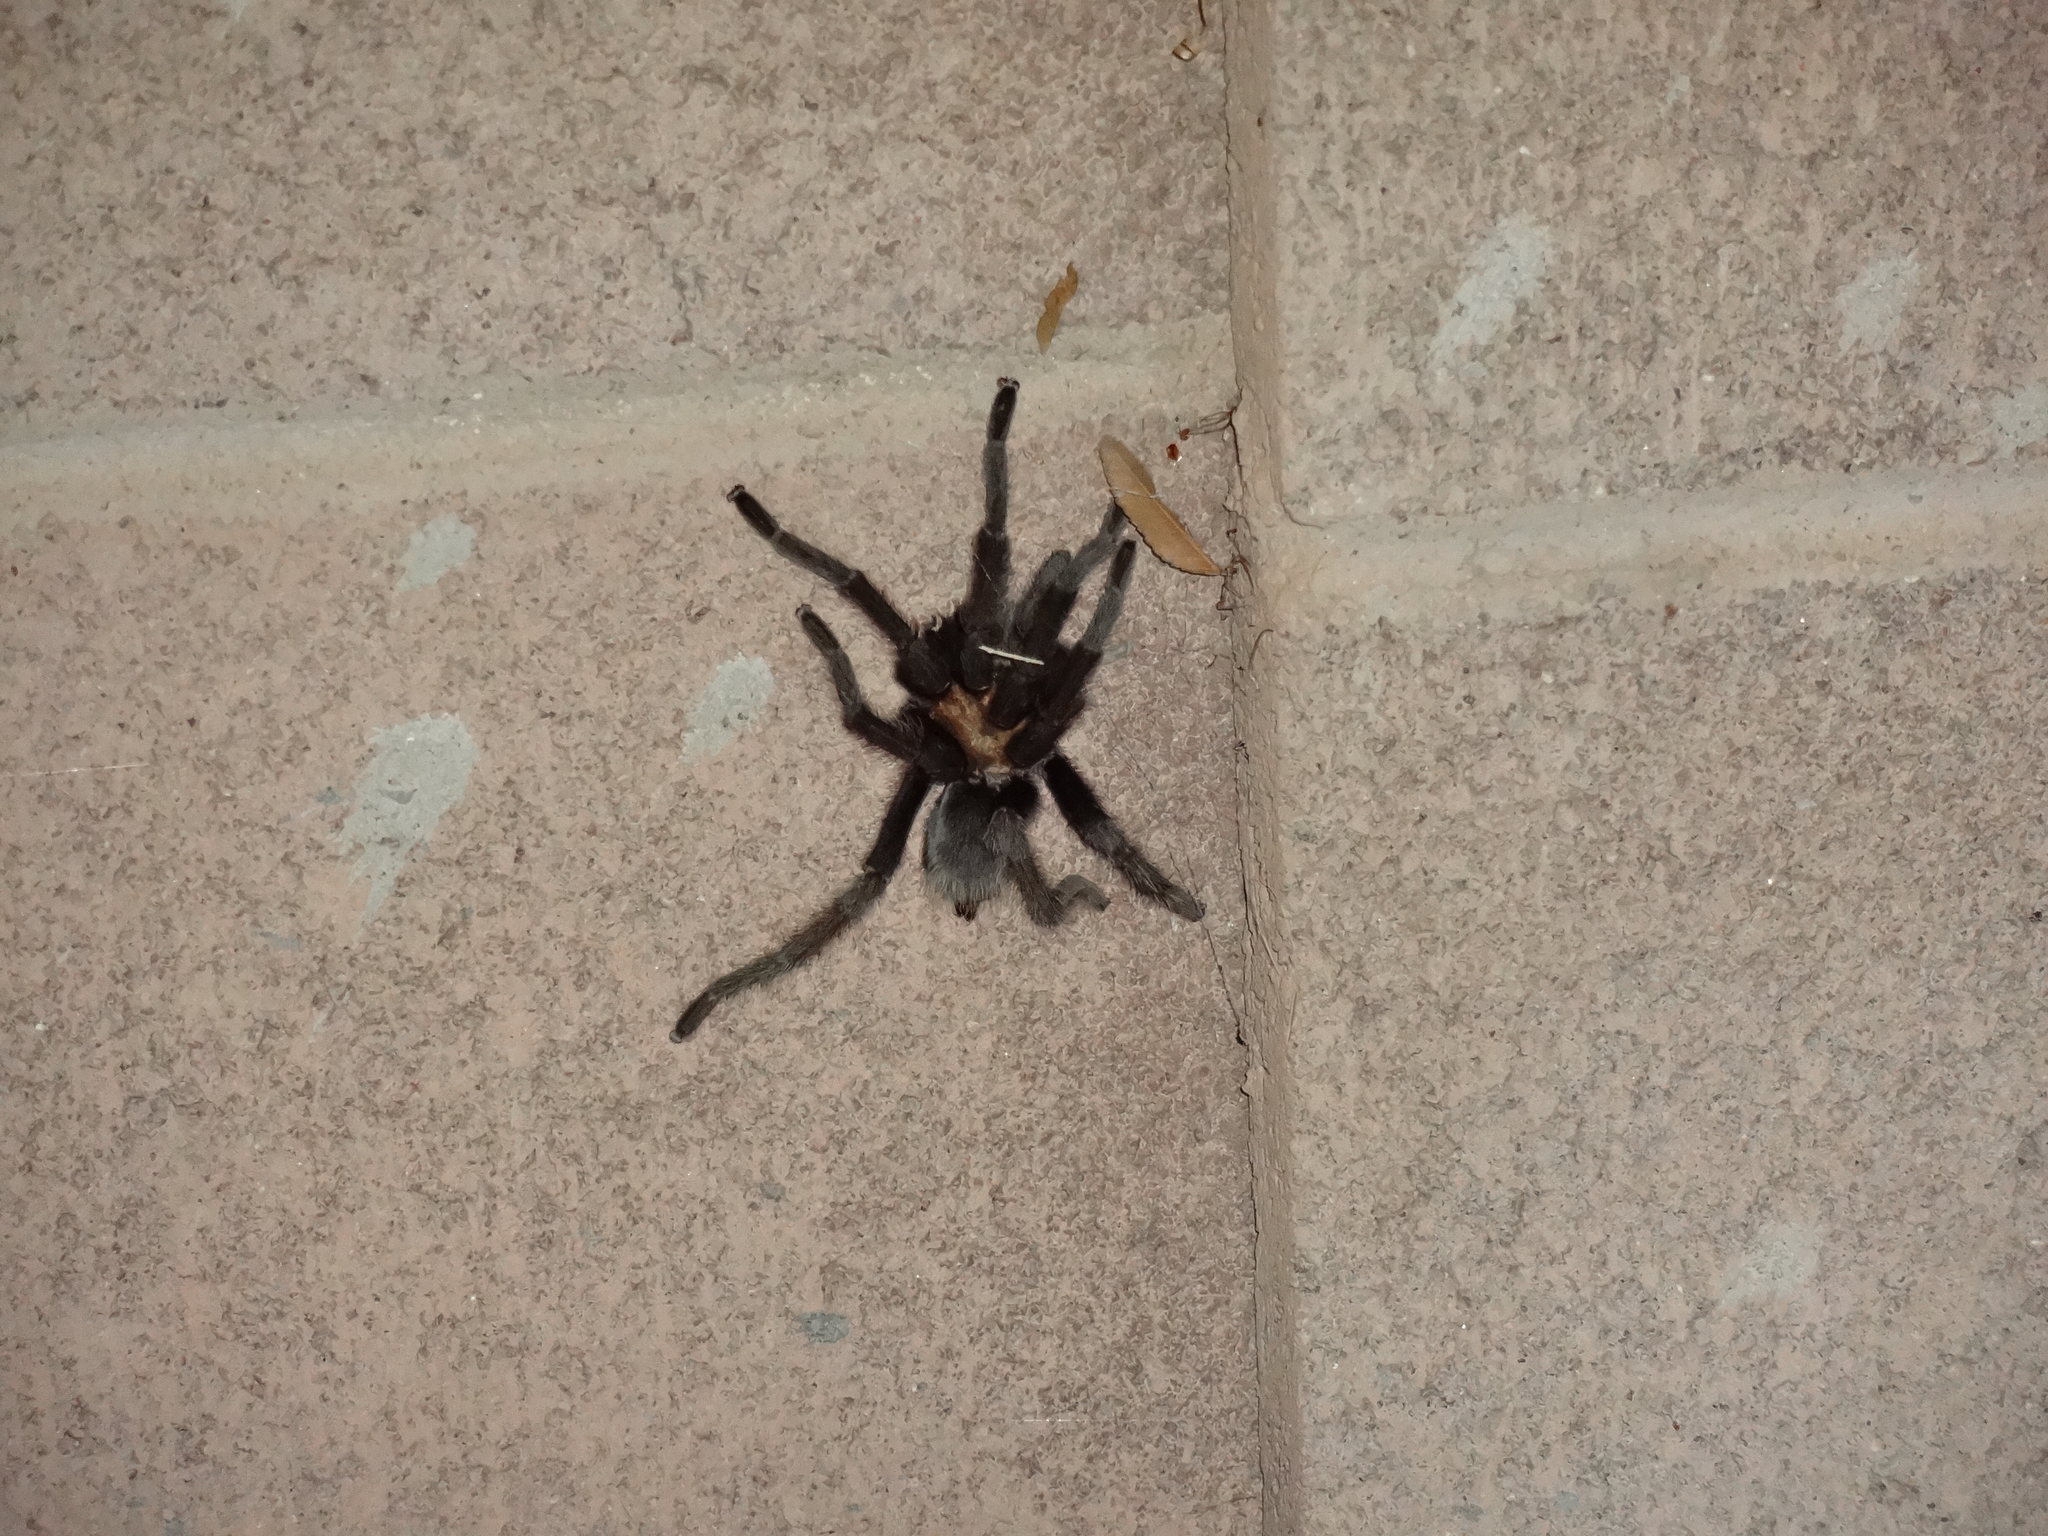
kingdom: Animalia
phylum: Arthropoda
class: Arachnida
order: Araneae
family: Theraphosidae
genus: Aphonopelma
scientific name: Aphonopelma iodius
